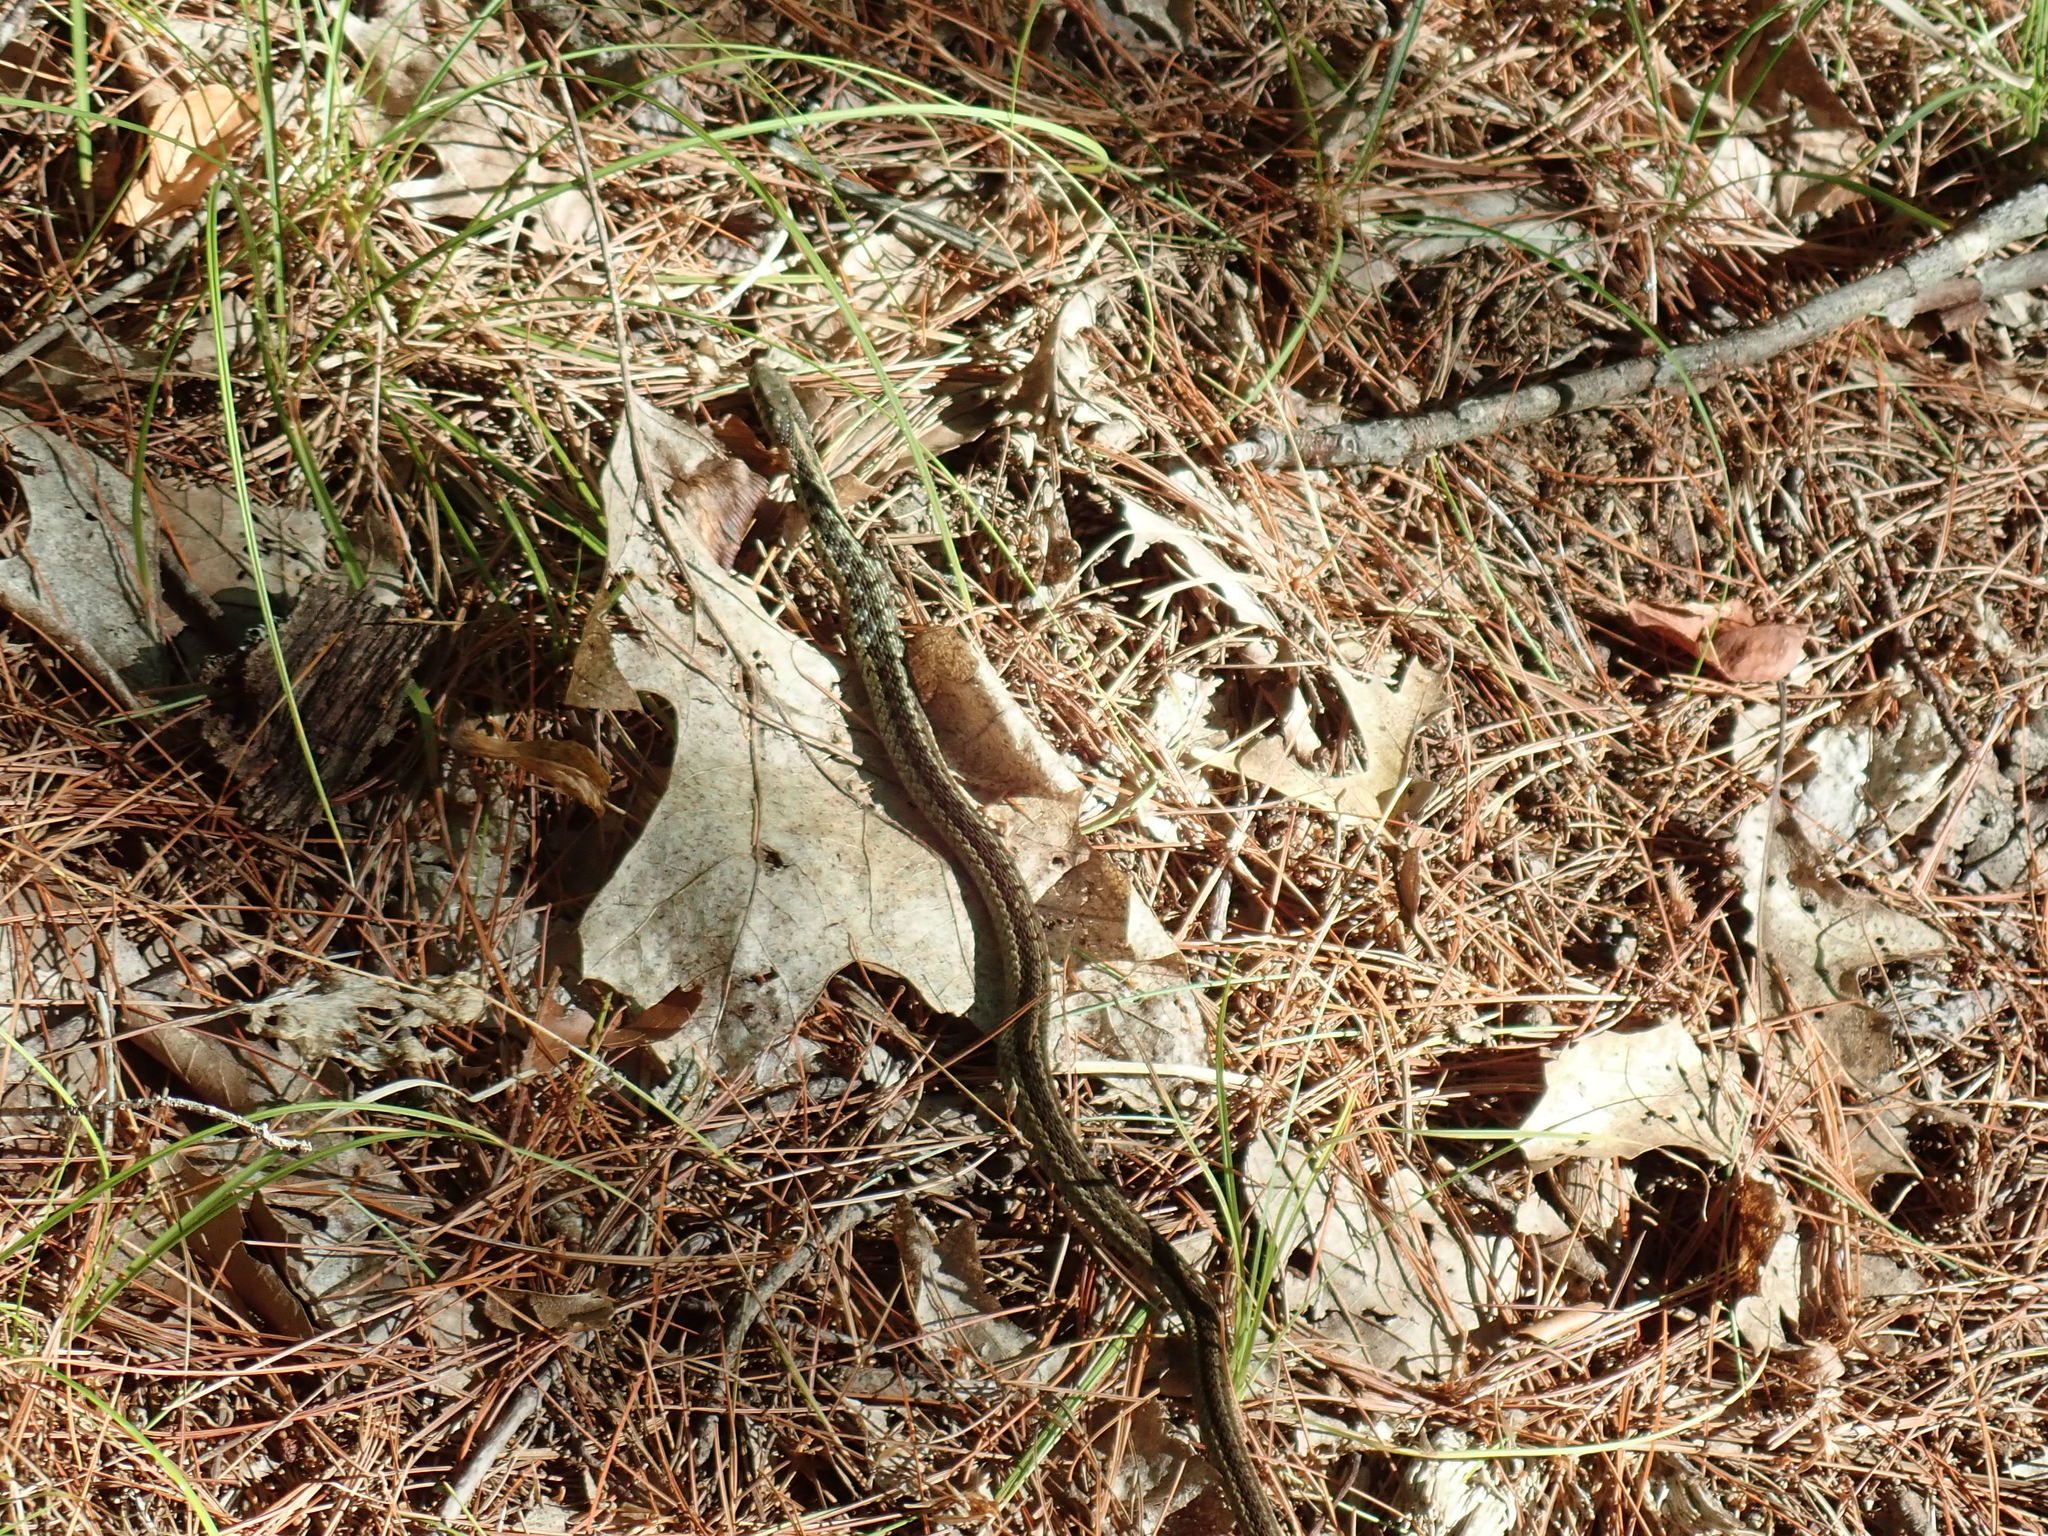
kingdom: Animalia
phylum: Chordata
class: Squamata
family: Colubridae
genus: Thamnophis
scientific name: Thamnophis sirtalis
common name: Common garter snake
